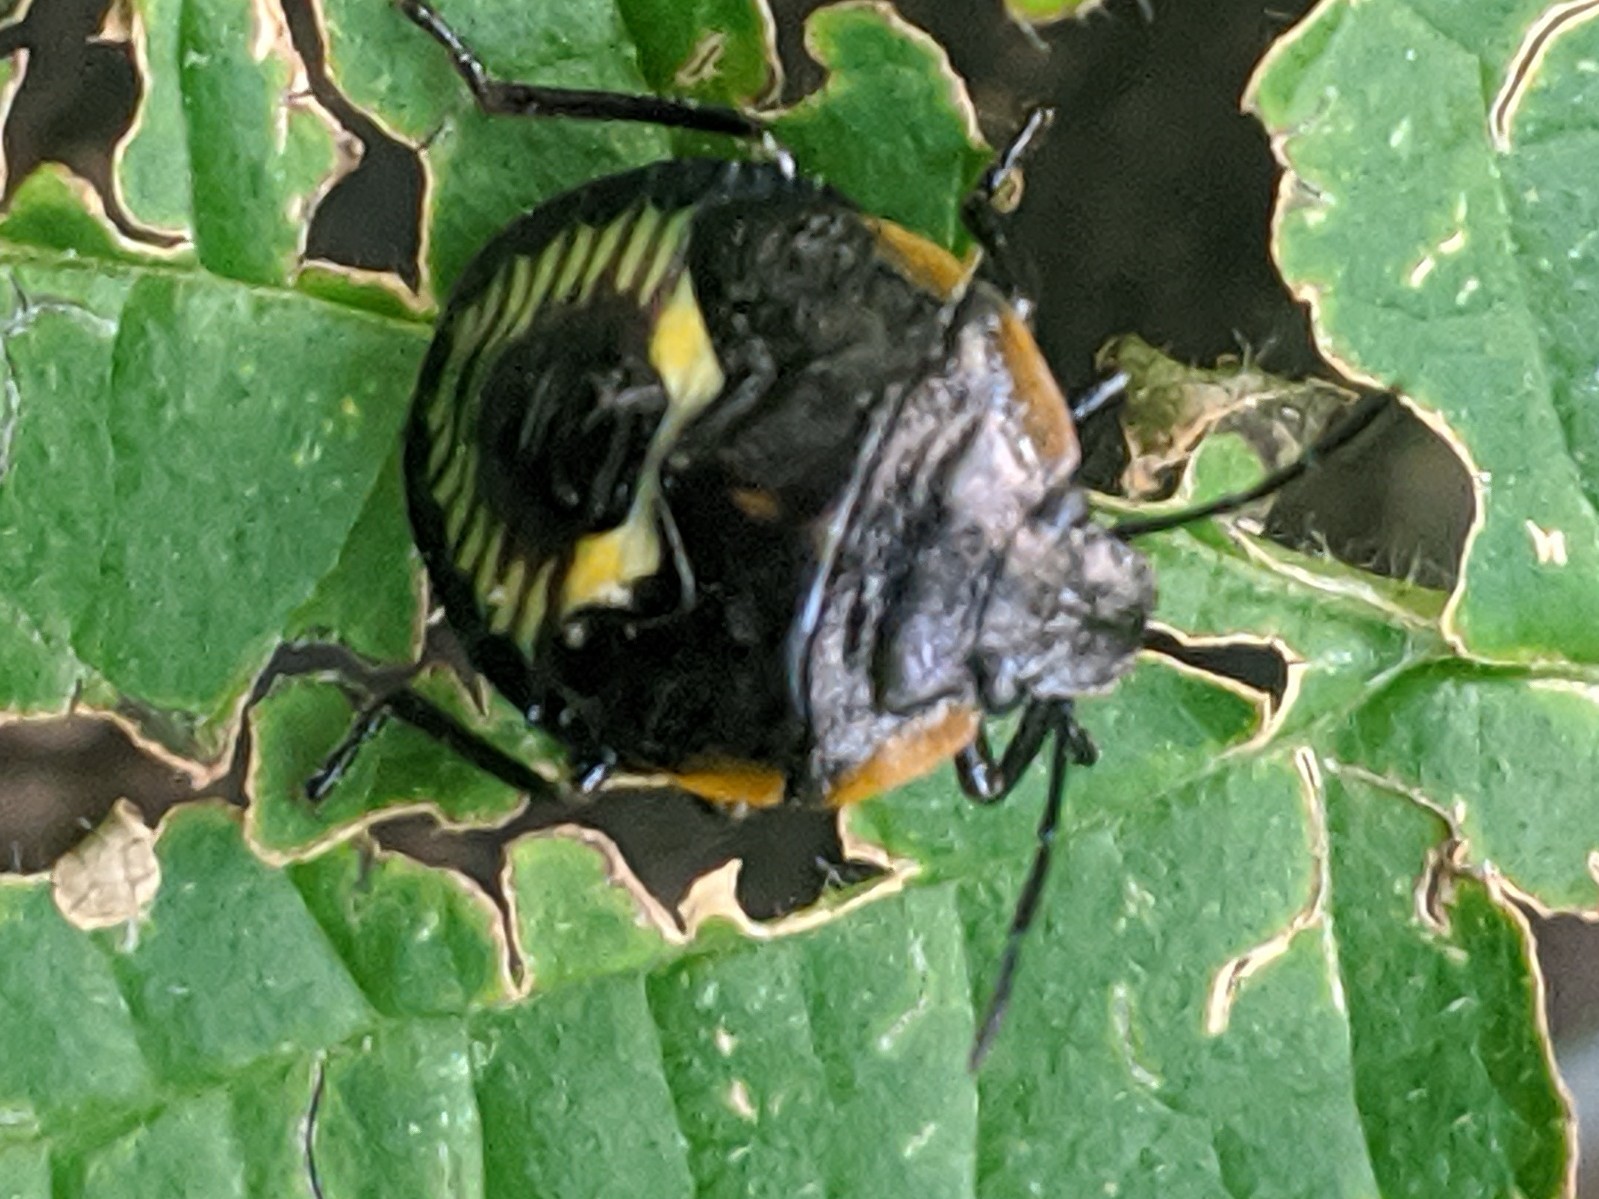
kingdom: Animalia
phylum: Arthropoda
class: Insecta
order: Hemiptera
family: Pentatomidae
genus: Chinavia
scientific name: Chinavia hilaris
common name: Green stink bug
